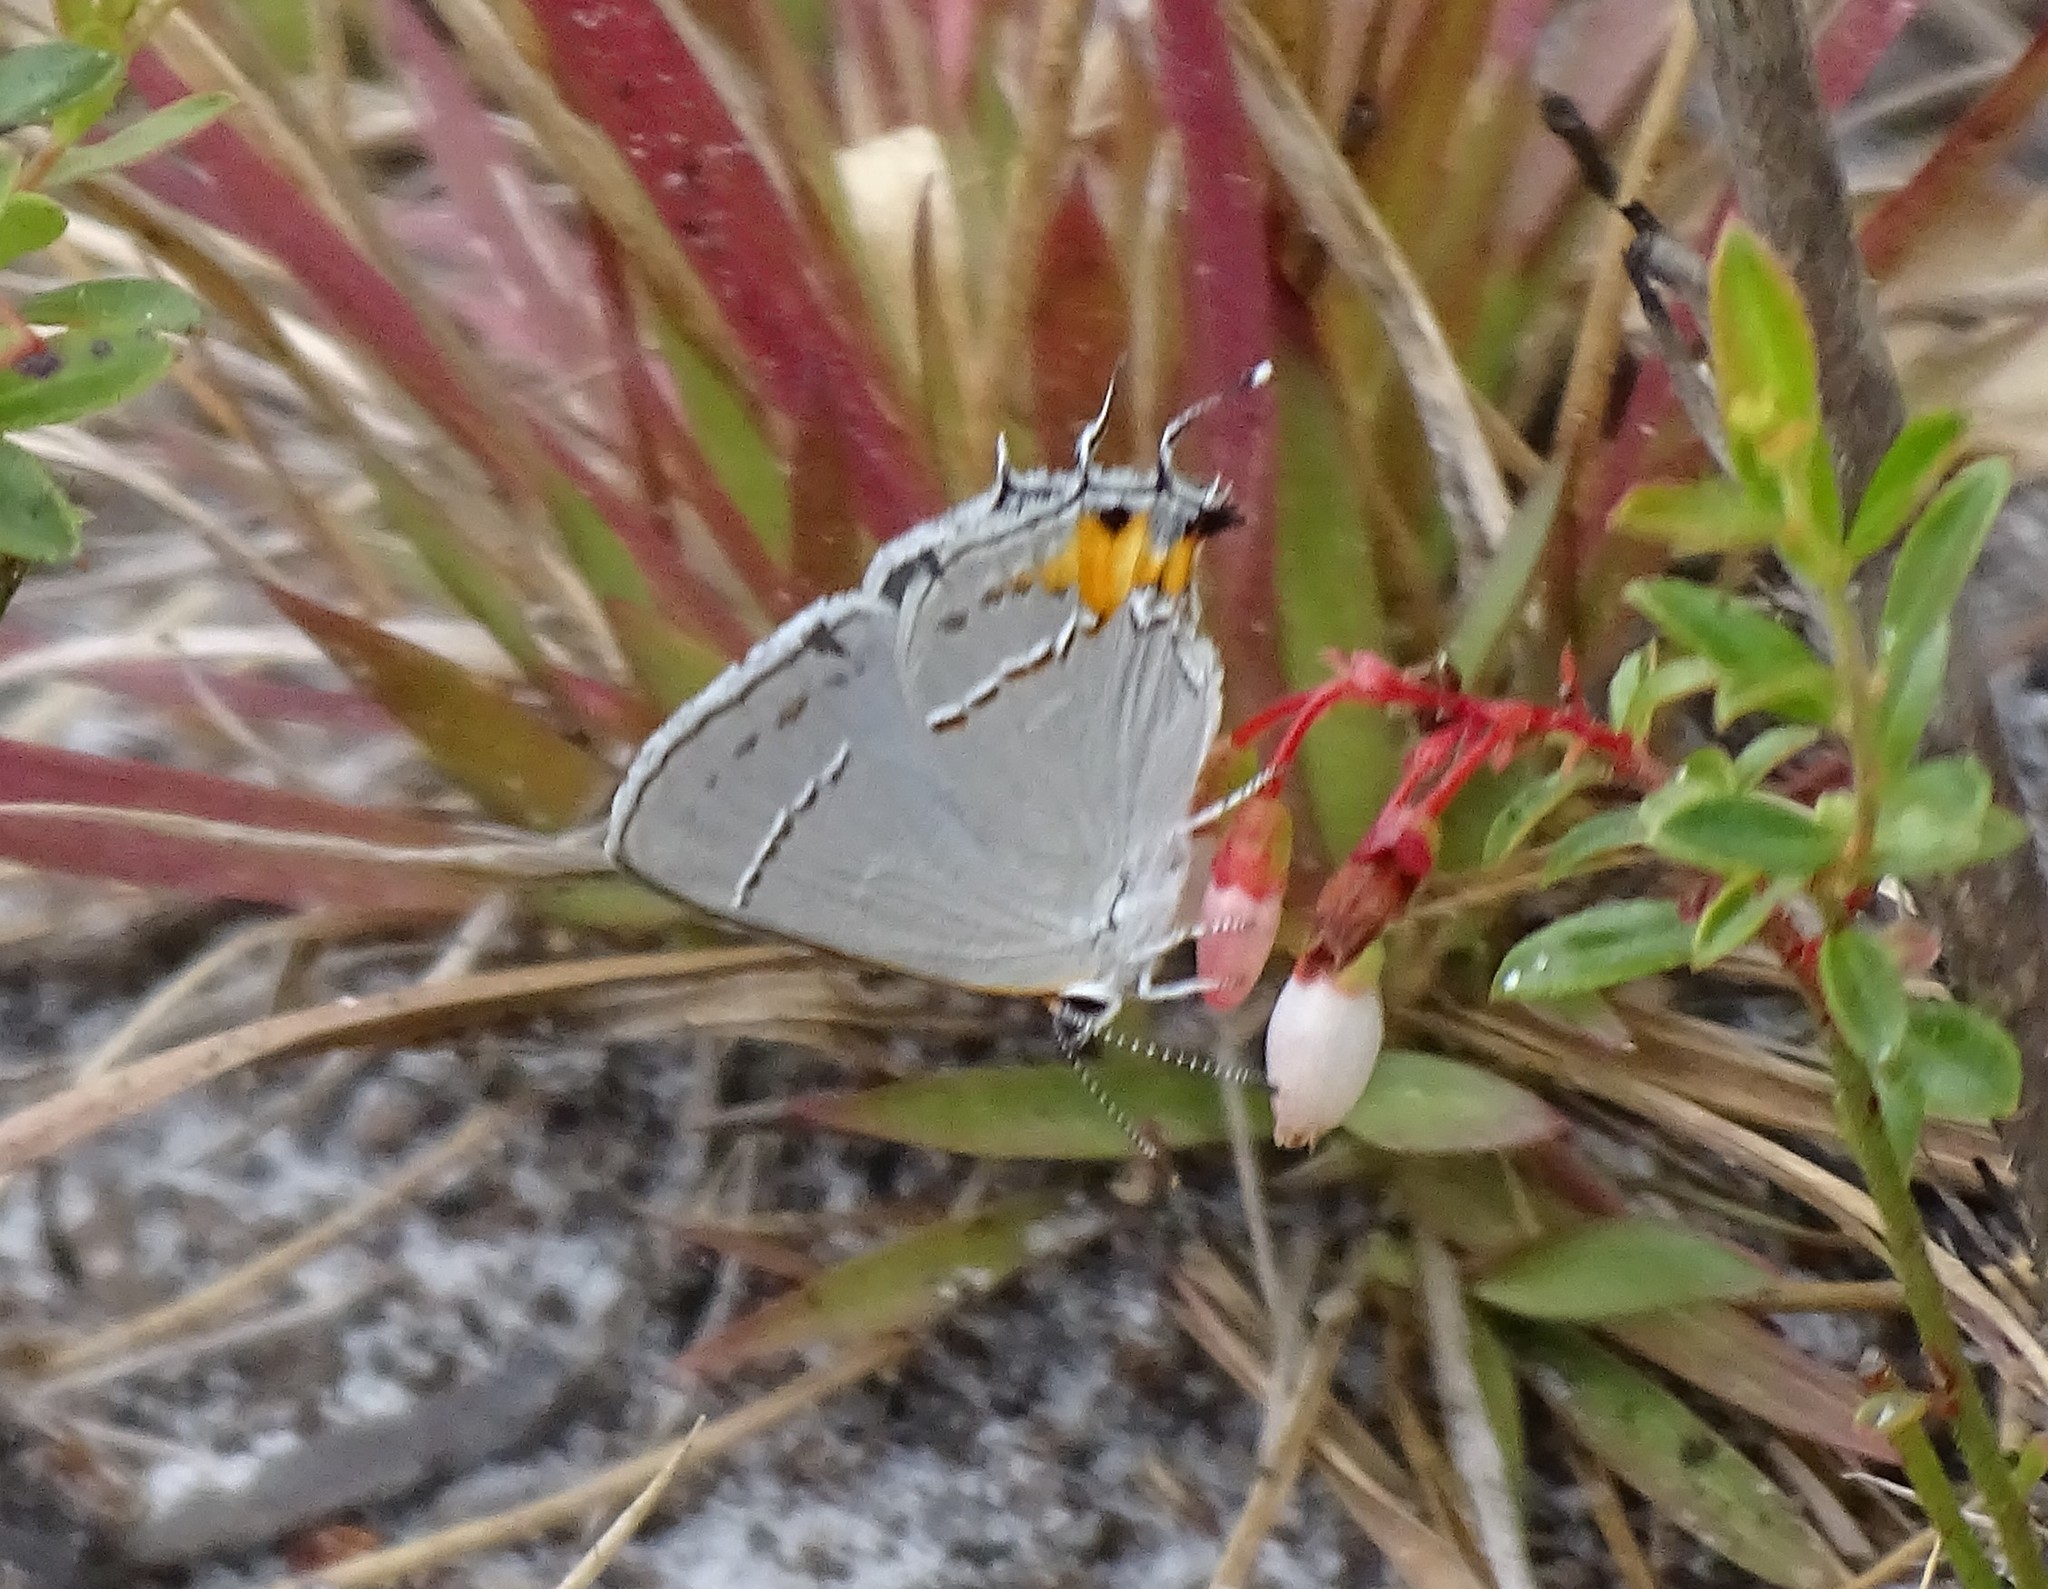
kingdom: Animalia
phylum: Arthropoda
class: Insecta
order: Lepidoptera
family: Lycaenidae
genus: Strymon
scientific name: Strymon melinus
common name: Gray hairstreak
